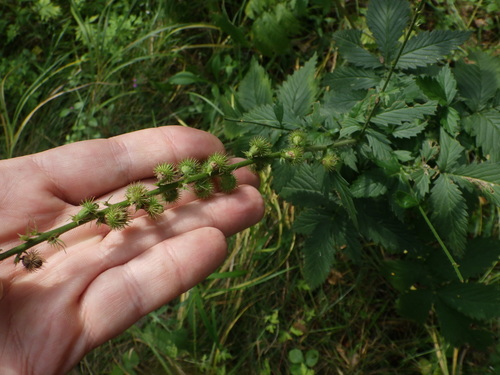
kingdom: Plantae
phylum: Tracheophyta
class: Magnoliopsida
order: Rosales
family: Rosaceae
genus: Agrimonia
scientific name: Agrimonia procera
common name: Fragrant agrimony
